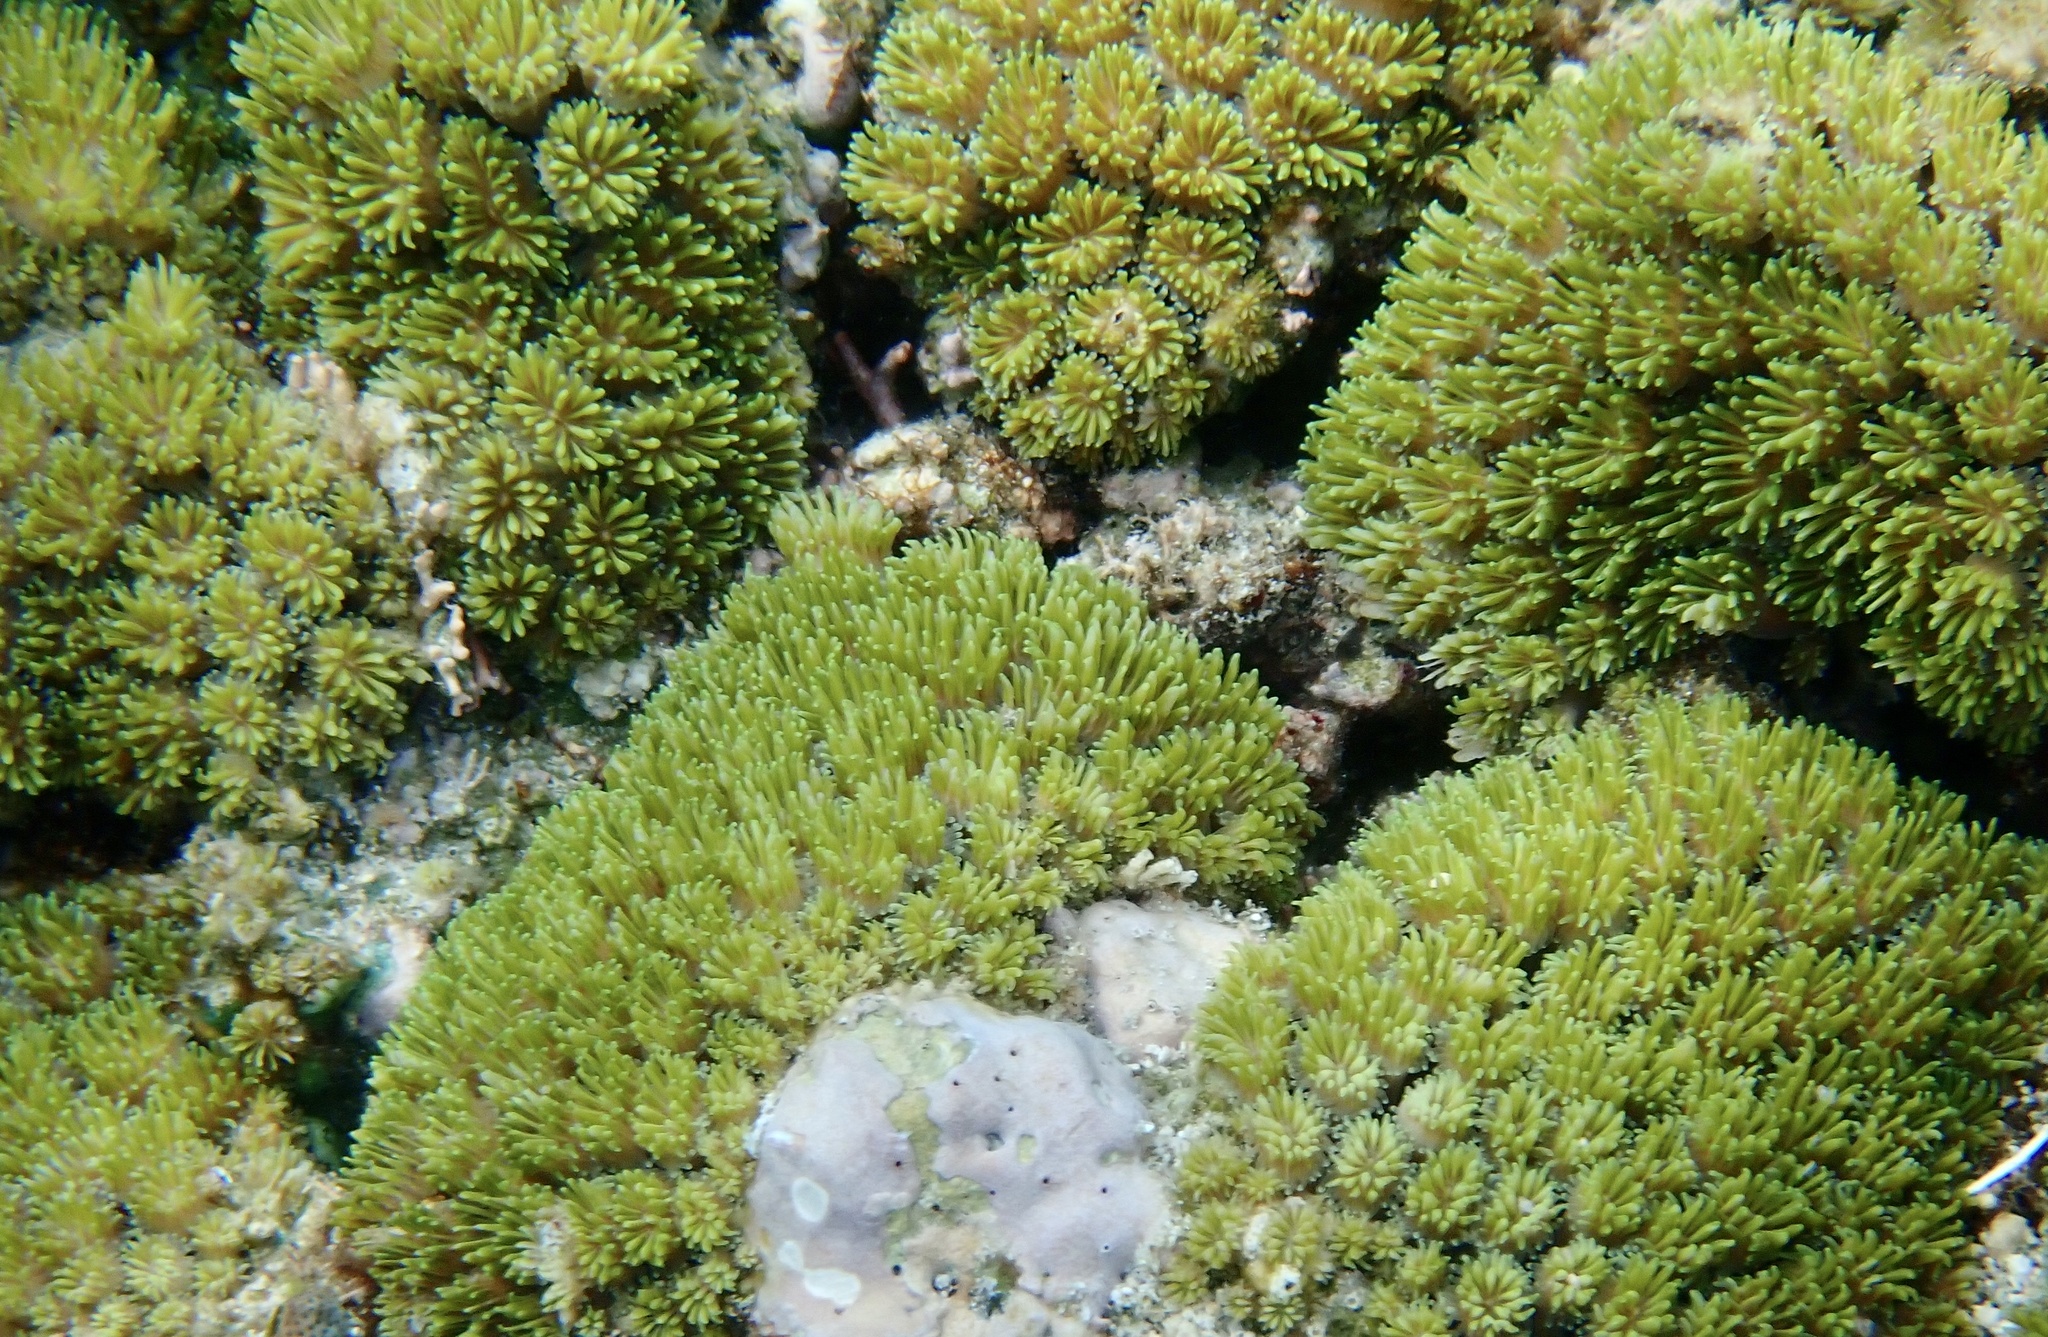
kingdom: Animalia
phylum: Cnidaria
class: Anthozoa
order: Scleractinia
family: Euphylliidae
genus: Galaxea
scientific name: Galaxea fascicularis
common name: Octopus coral
